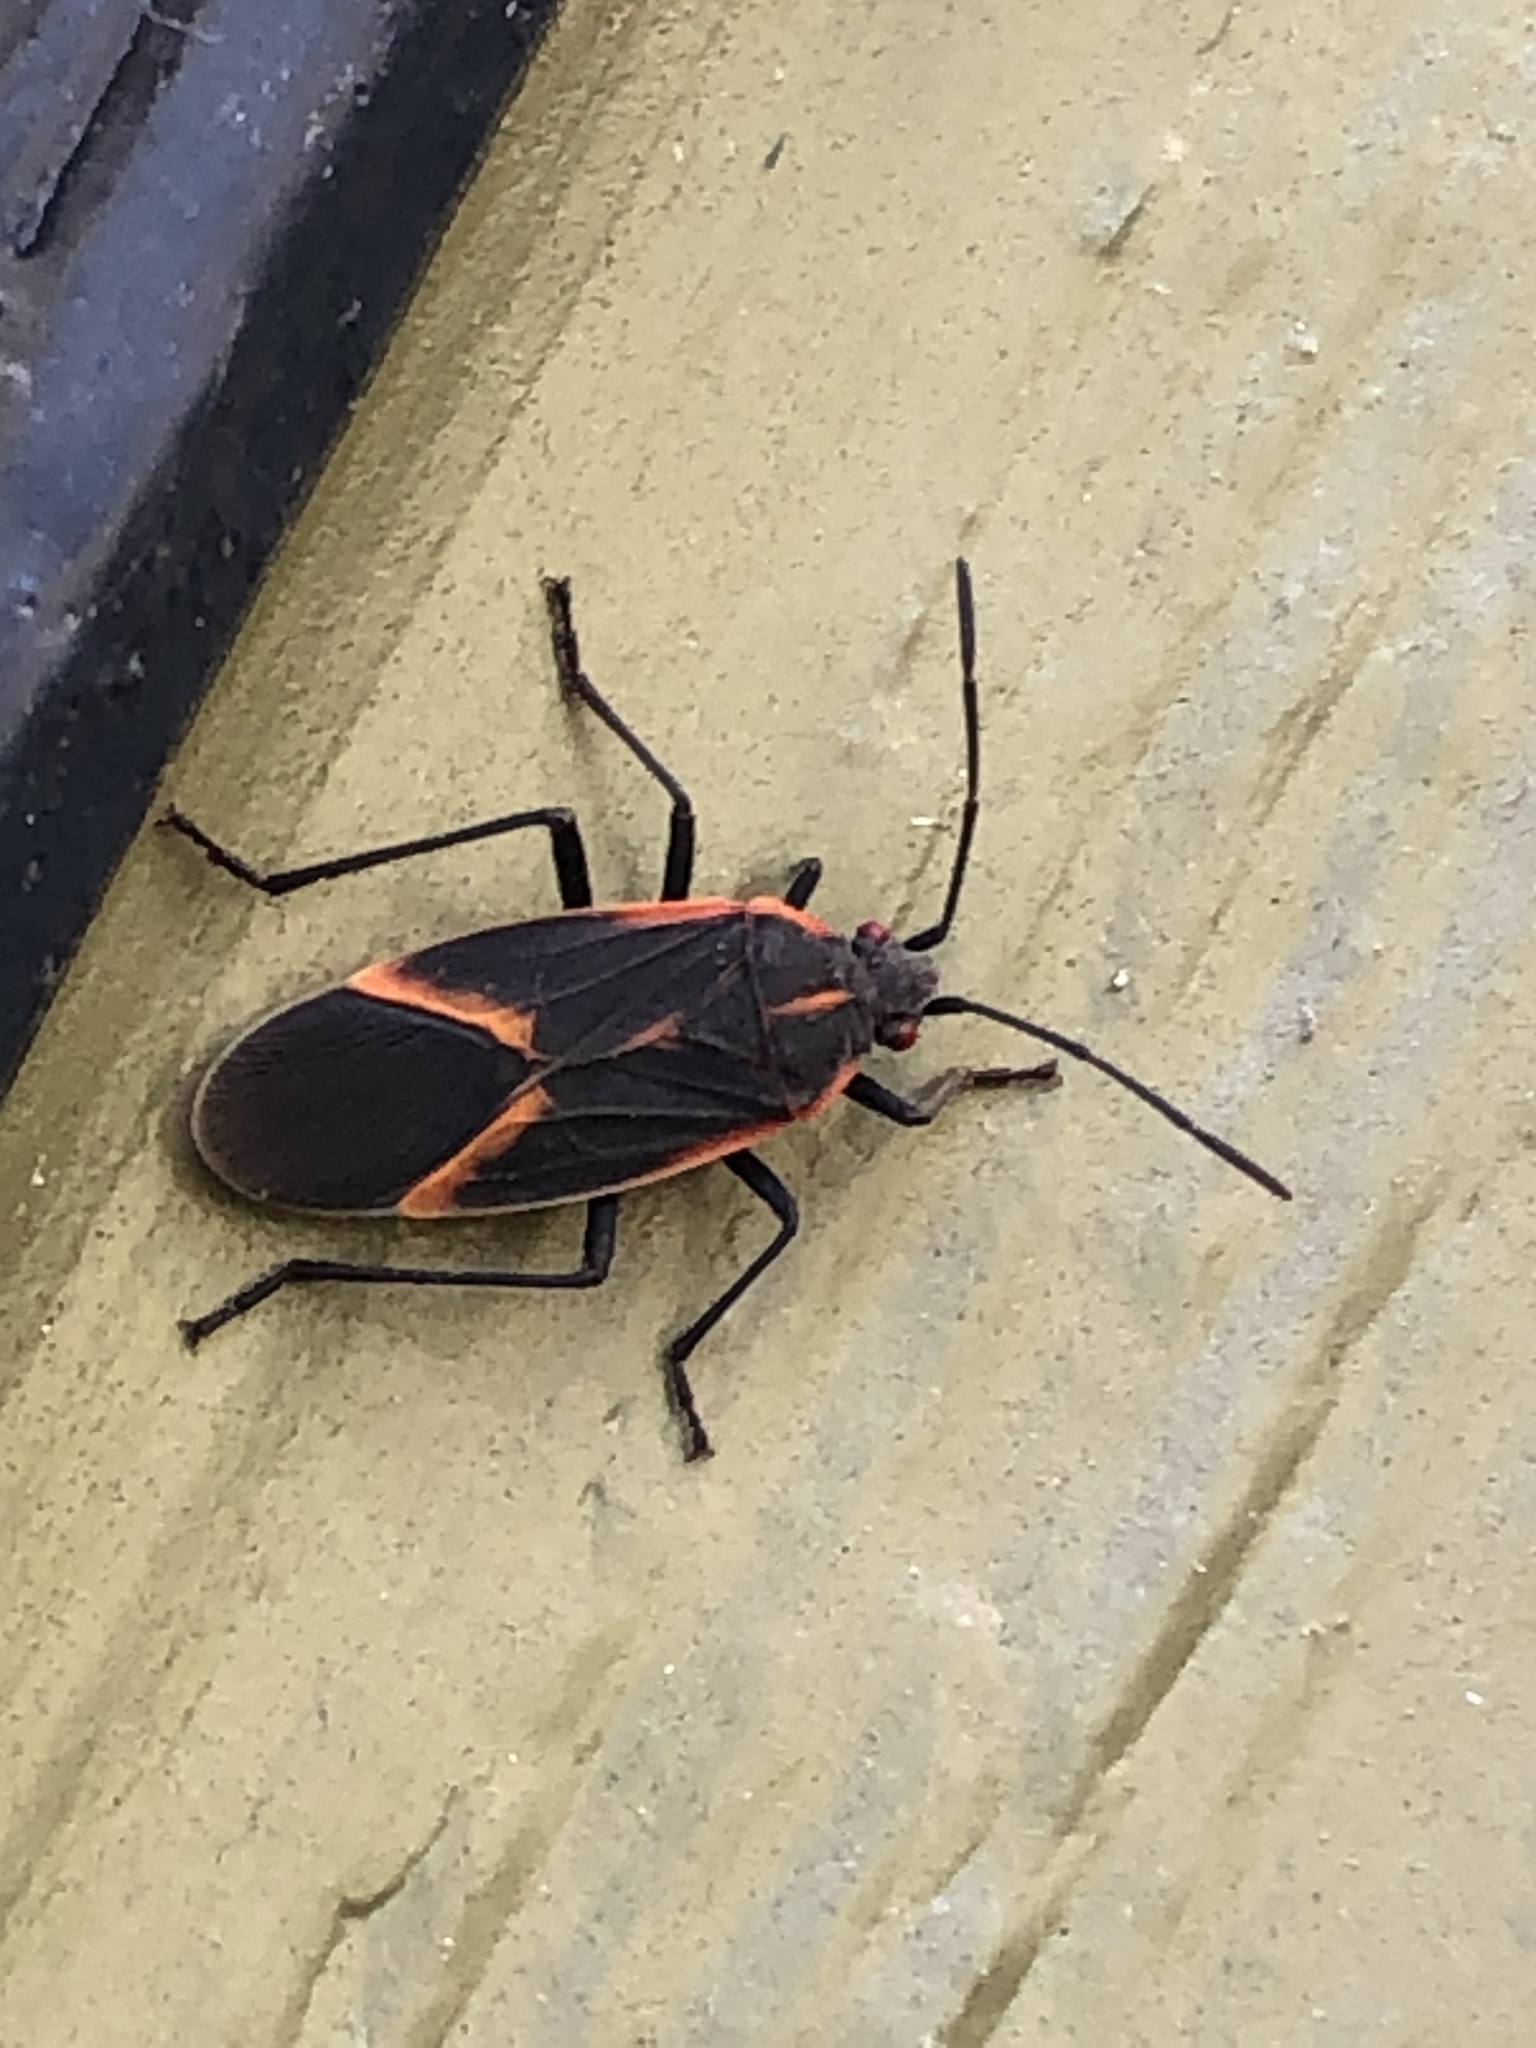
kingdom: Animalia
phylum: Arthropoda
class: Insecta
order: Hemiptera
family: Rhopalidae
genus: Boisea
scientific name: Boisea trivittata
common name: Boxelder bug
